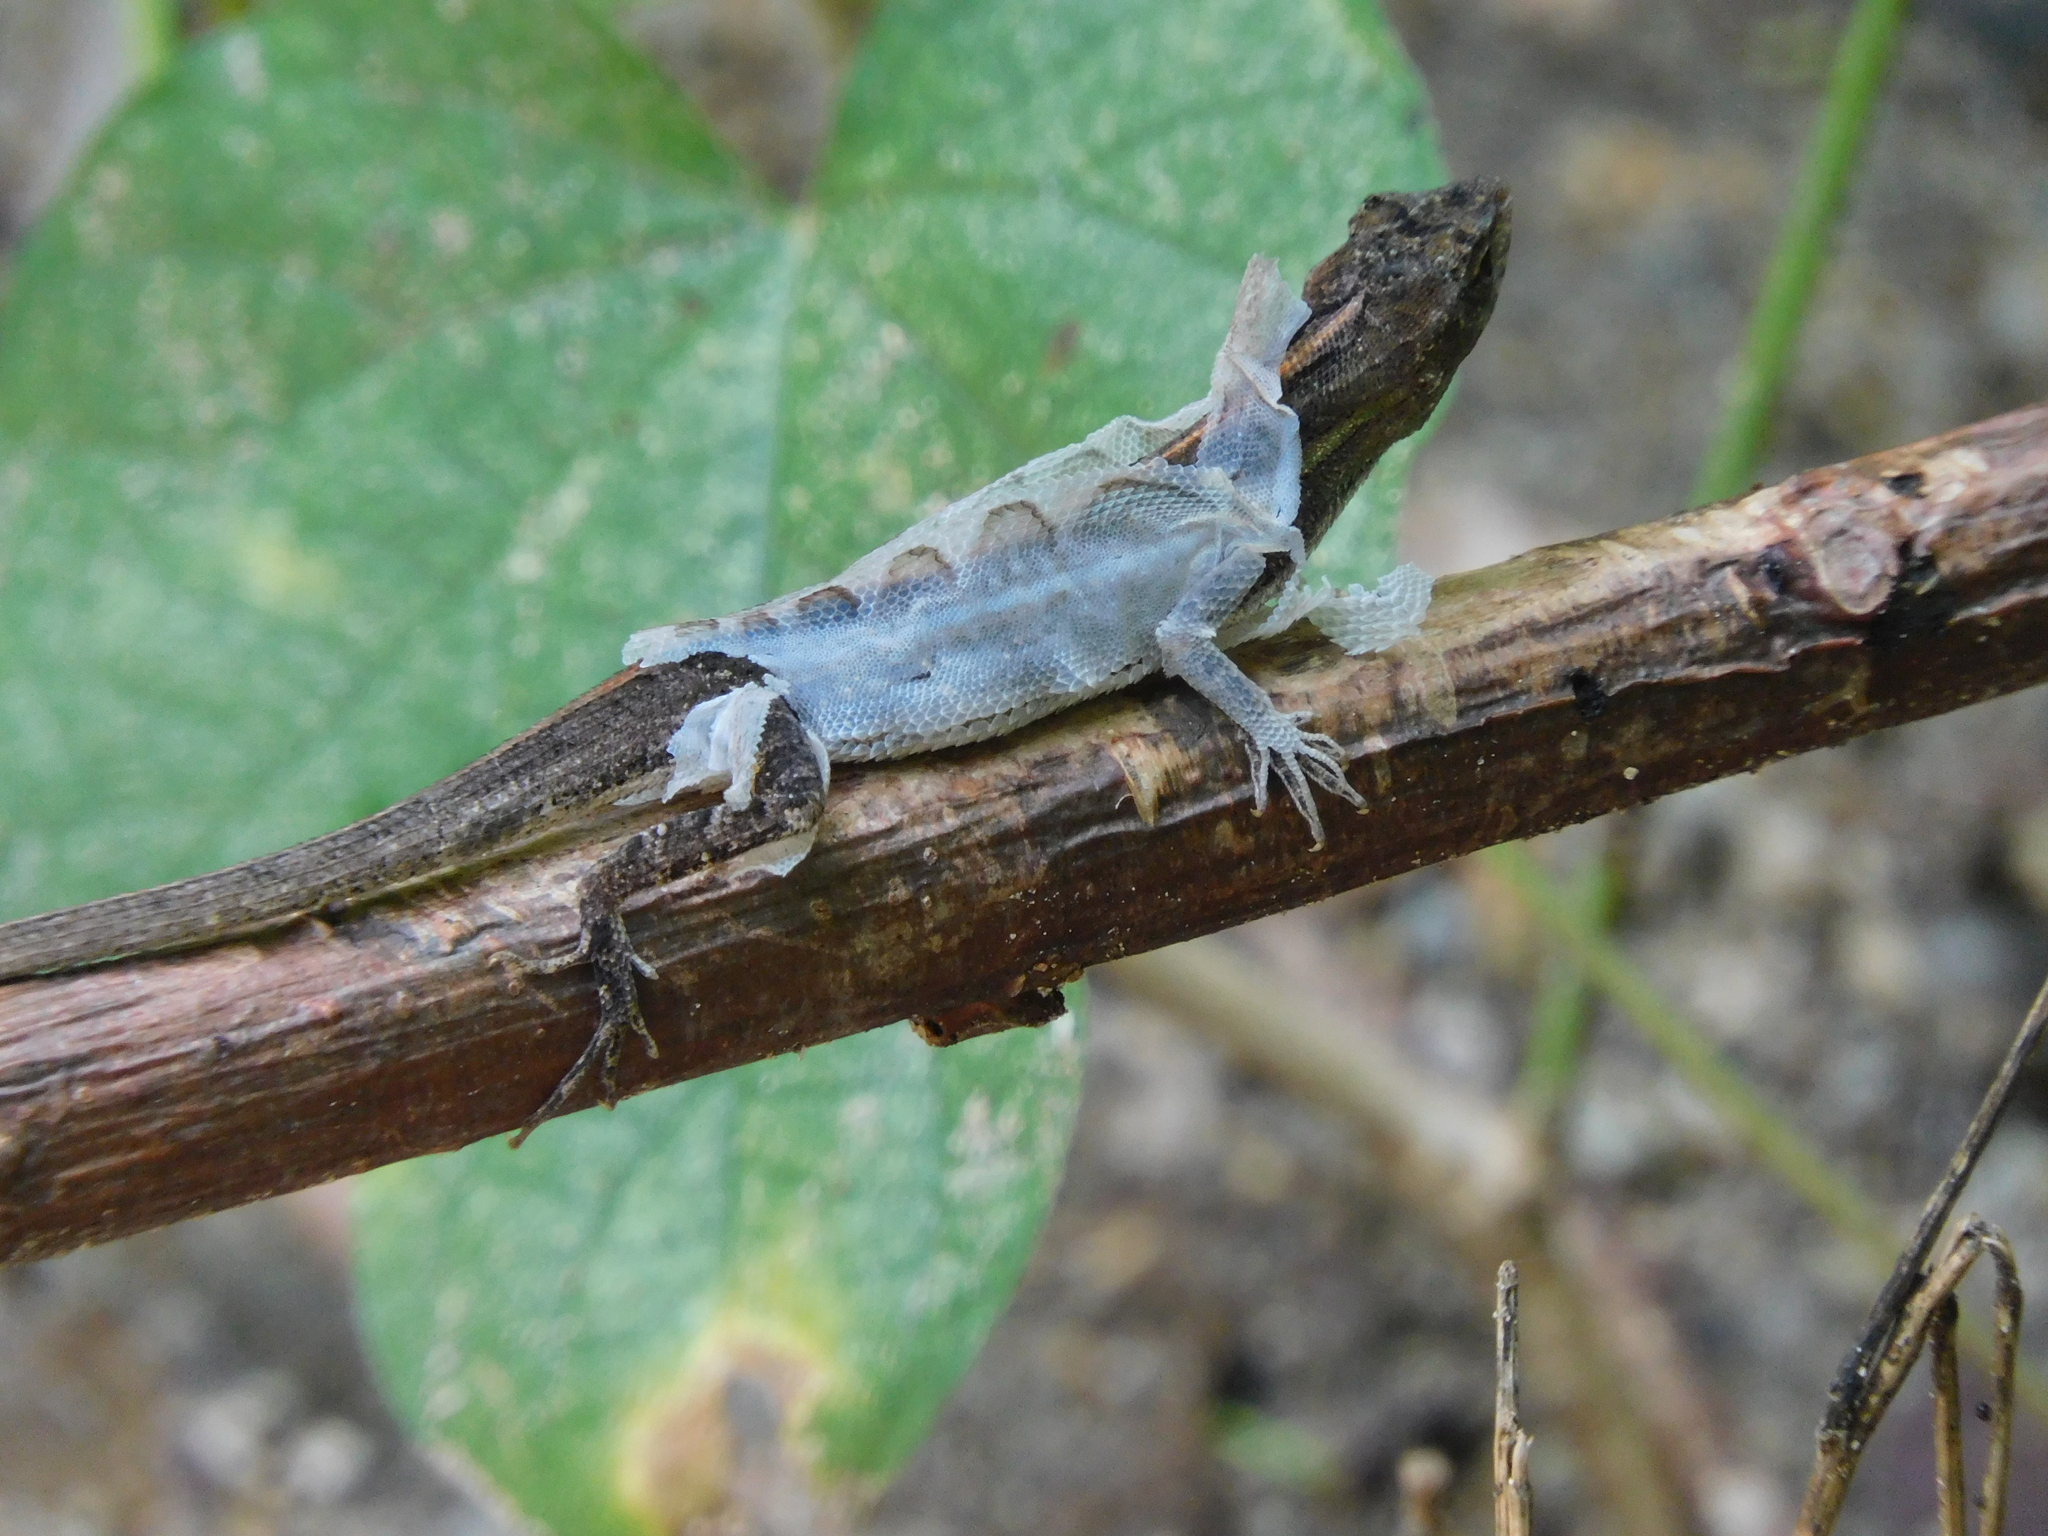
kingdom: Animalia
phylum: Chordata
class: Squamata
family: Dactyloidae
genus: Anolis
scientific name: Anolis auratus
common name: Grass anole
